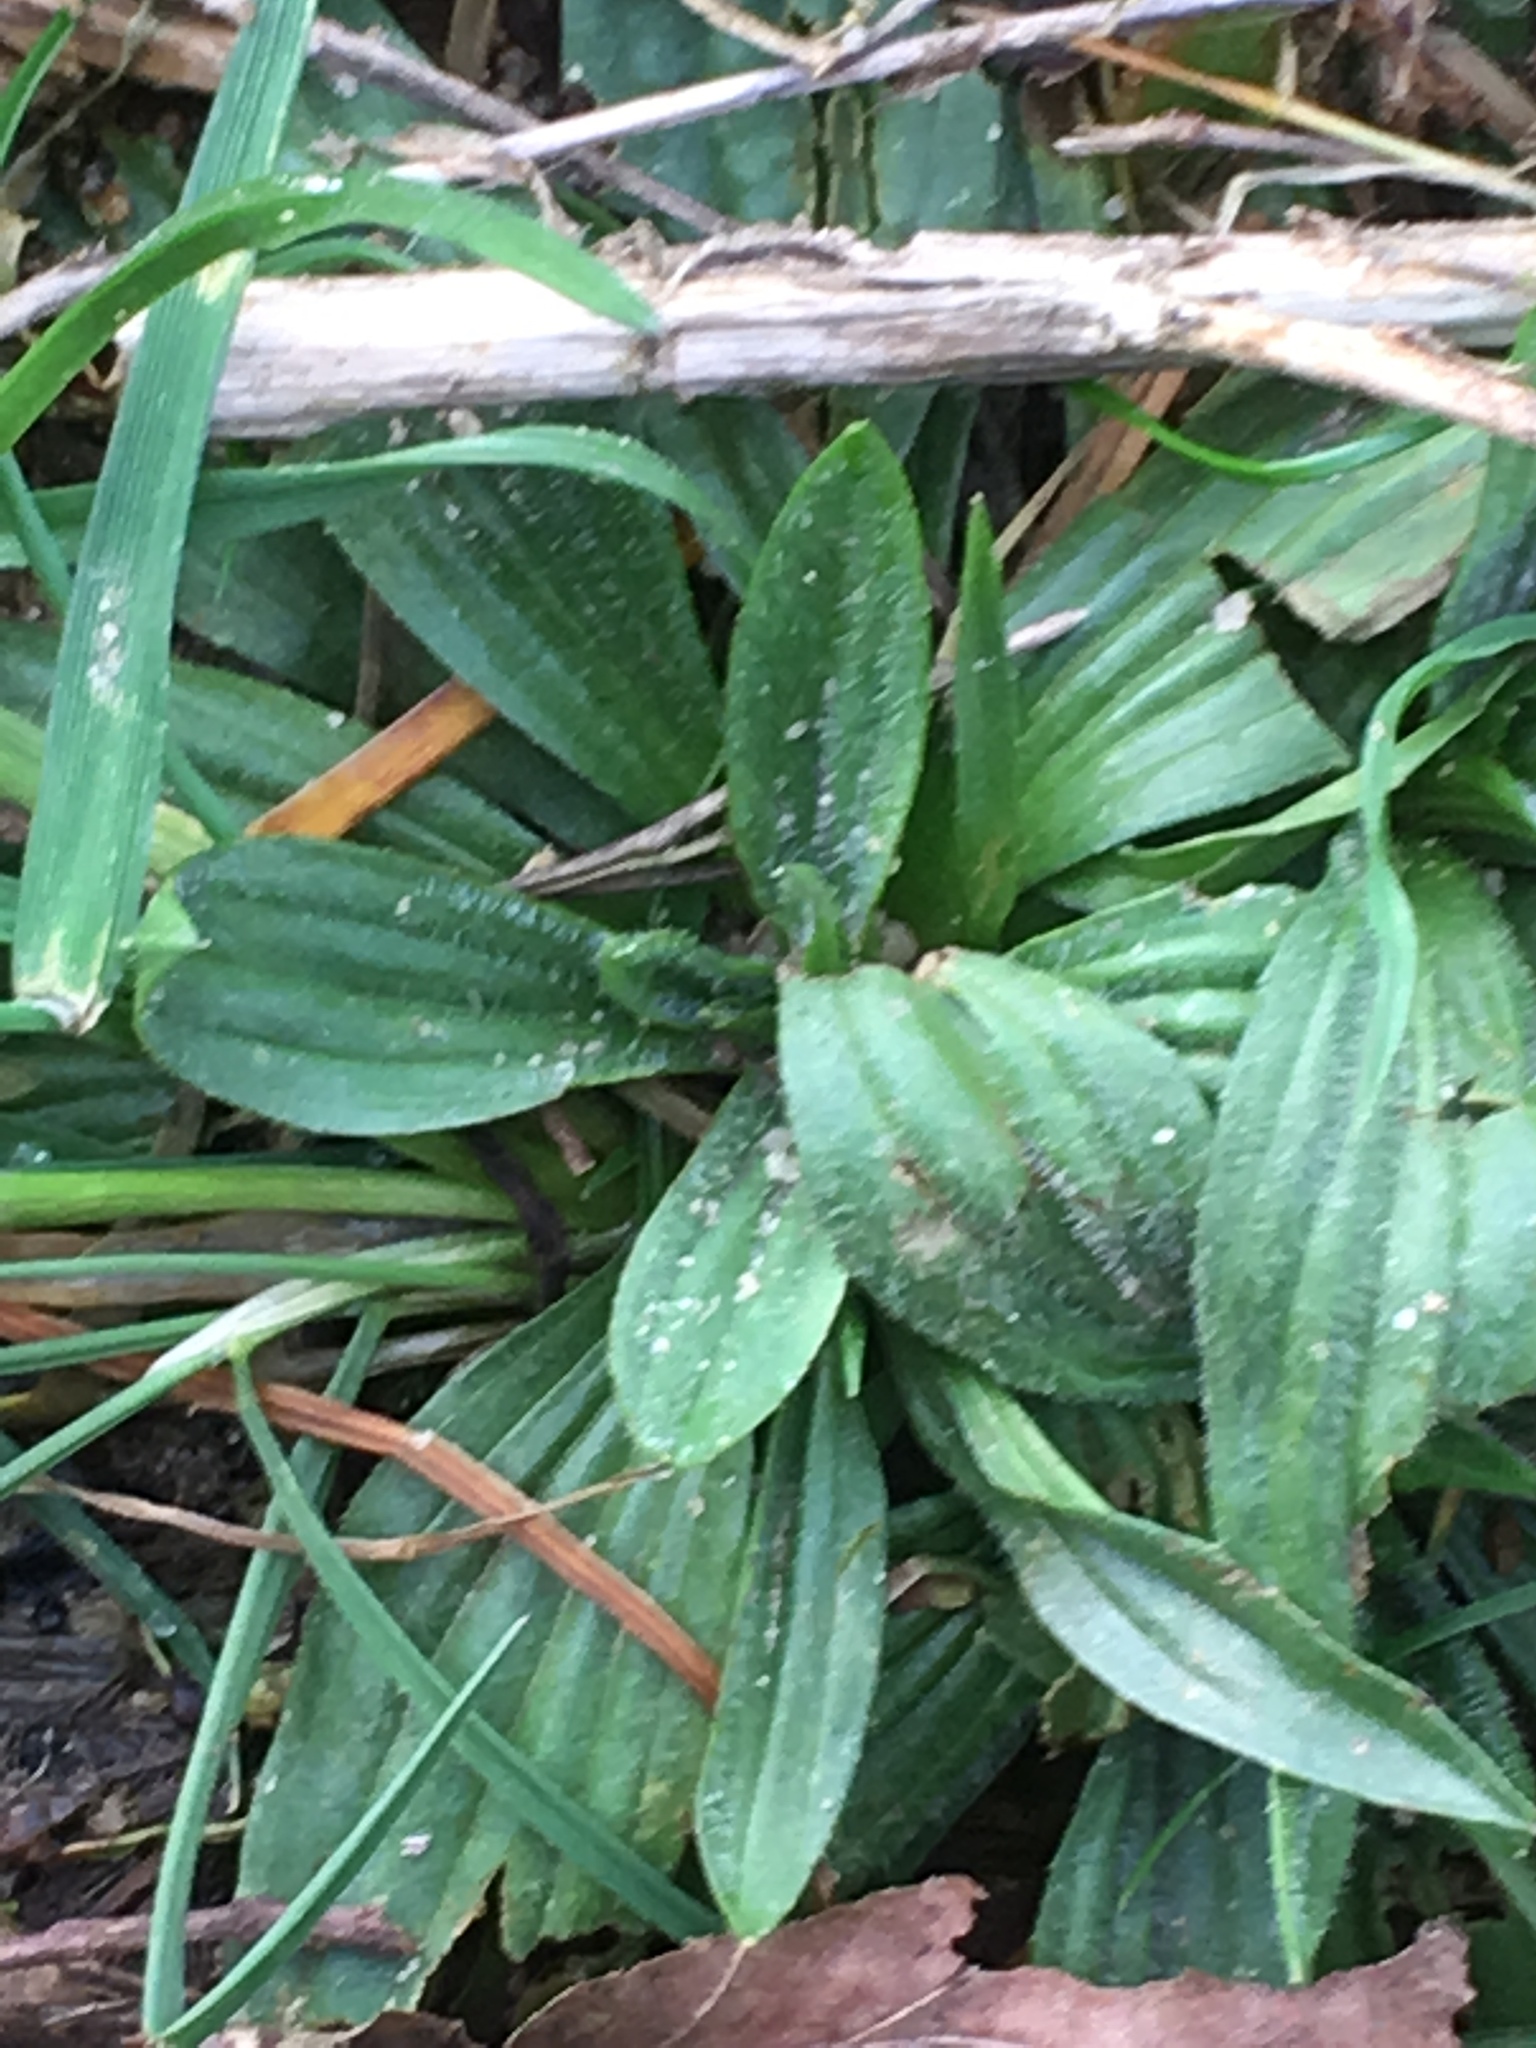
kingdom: Plantae
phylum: Tracheophyta
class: Magnoliopsida
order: Lamiales
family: Plantaginaceae
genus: Plantago
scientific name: Plantago lanceolata
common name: Ribwort plantain
